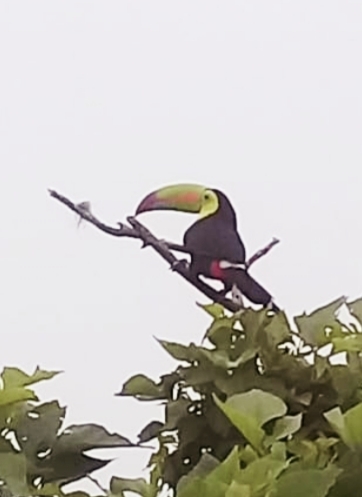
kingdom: Animalia
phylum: Chordata
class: Aves
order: Piciformes
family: Ramphastidae
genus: Ramphastos
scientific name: Ramphastos sulfuratus
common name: Keel-billed toucan
